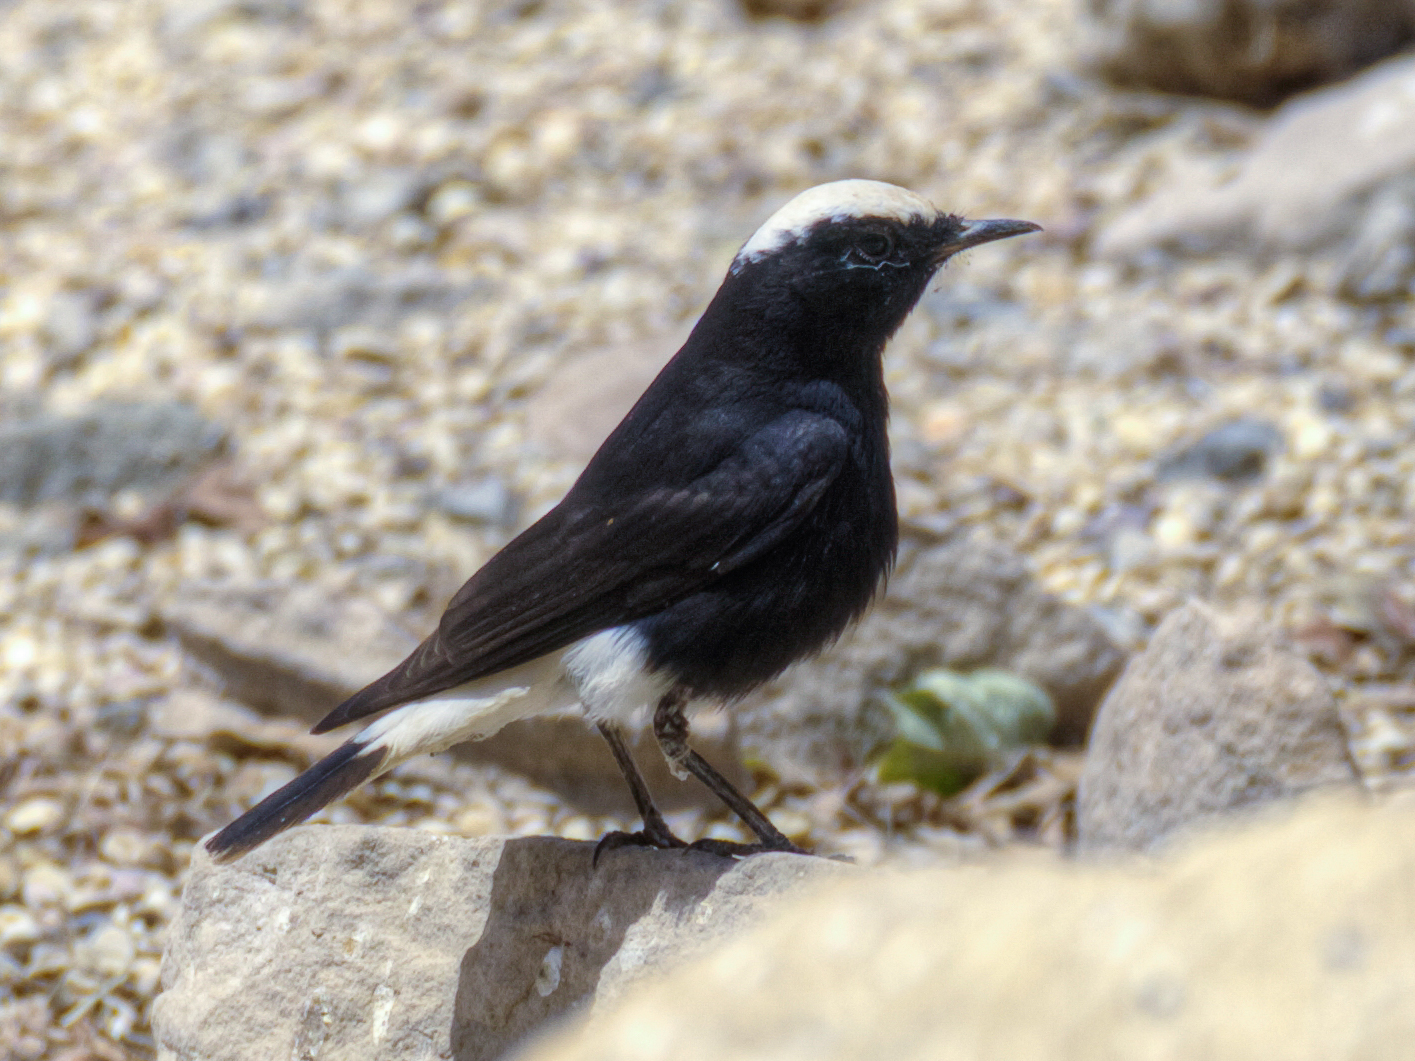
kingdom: Animalia
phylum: Chordata
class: Aves
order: Passeriformes
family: Muscicapidae
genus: Oenanthe
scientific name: Oenanthe leucopyga
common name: White-crowned wheatear
